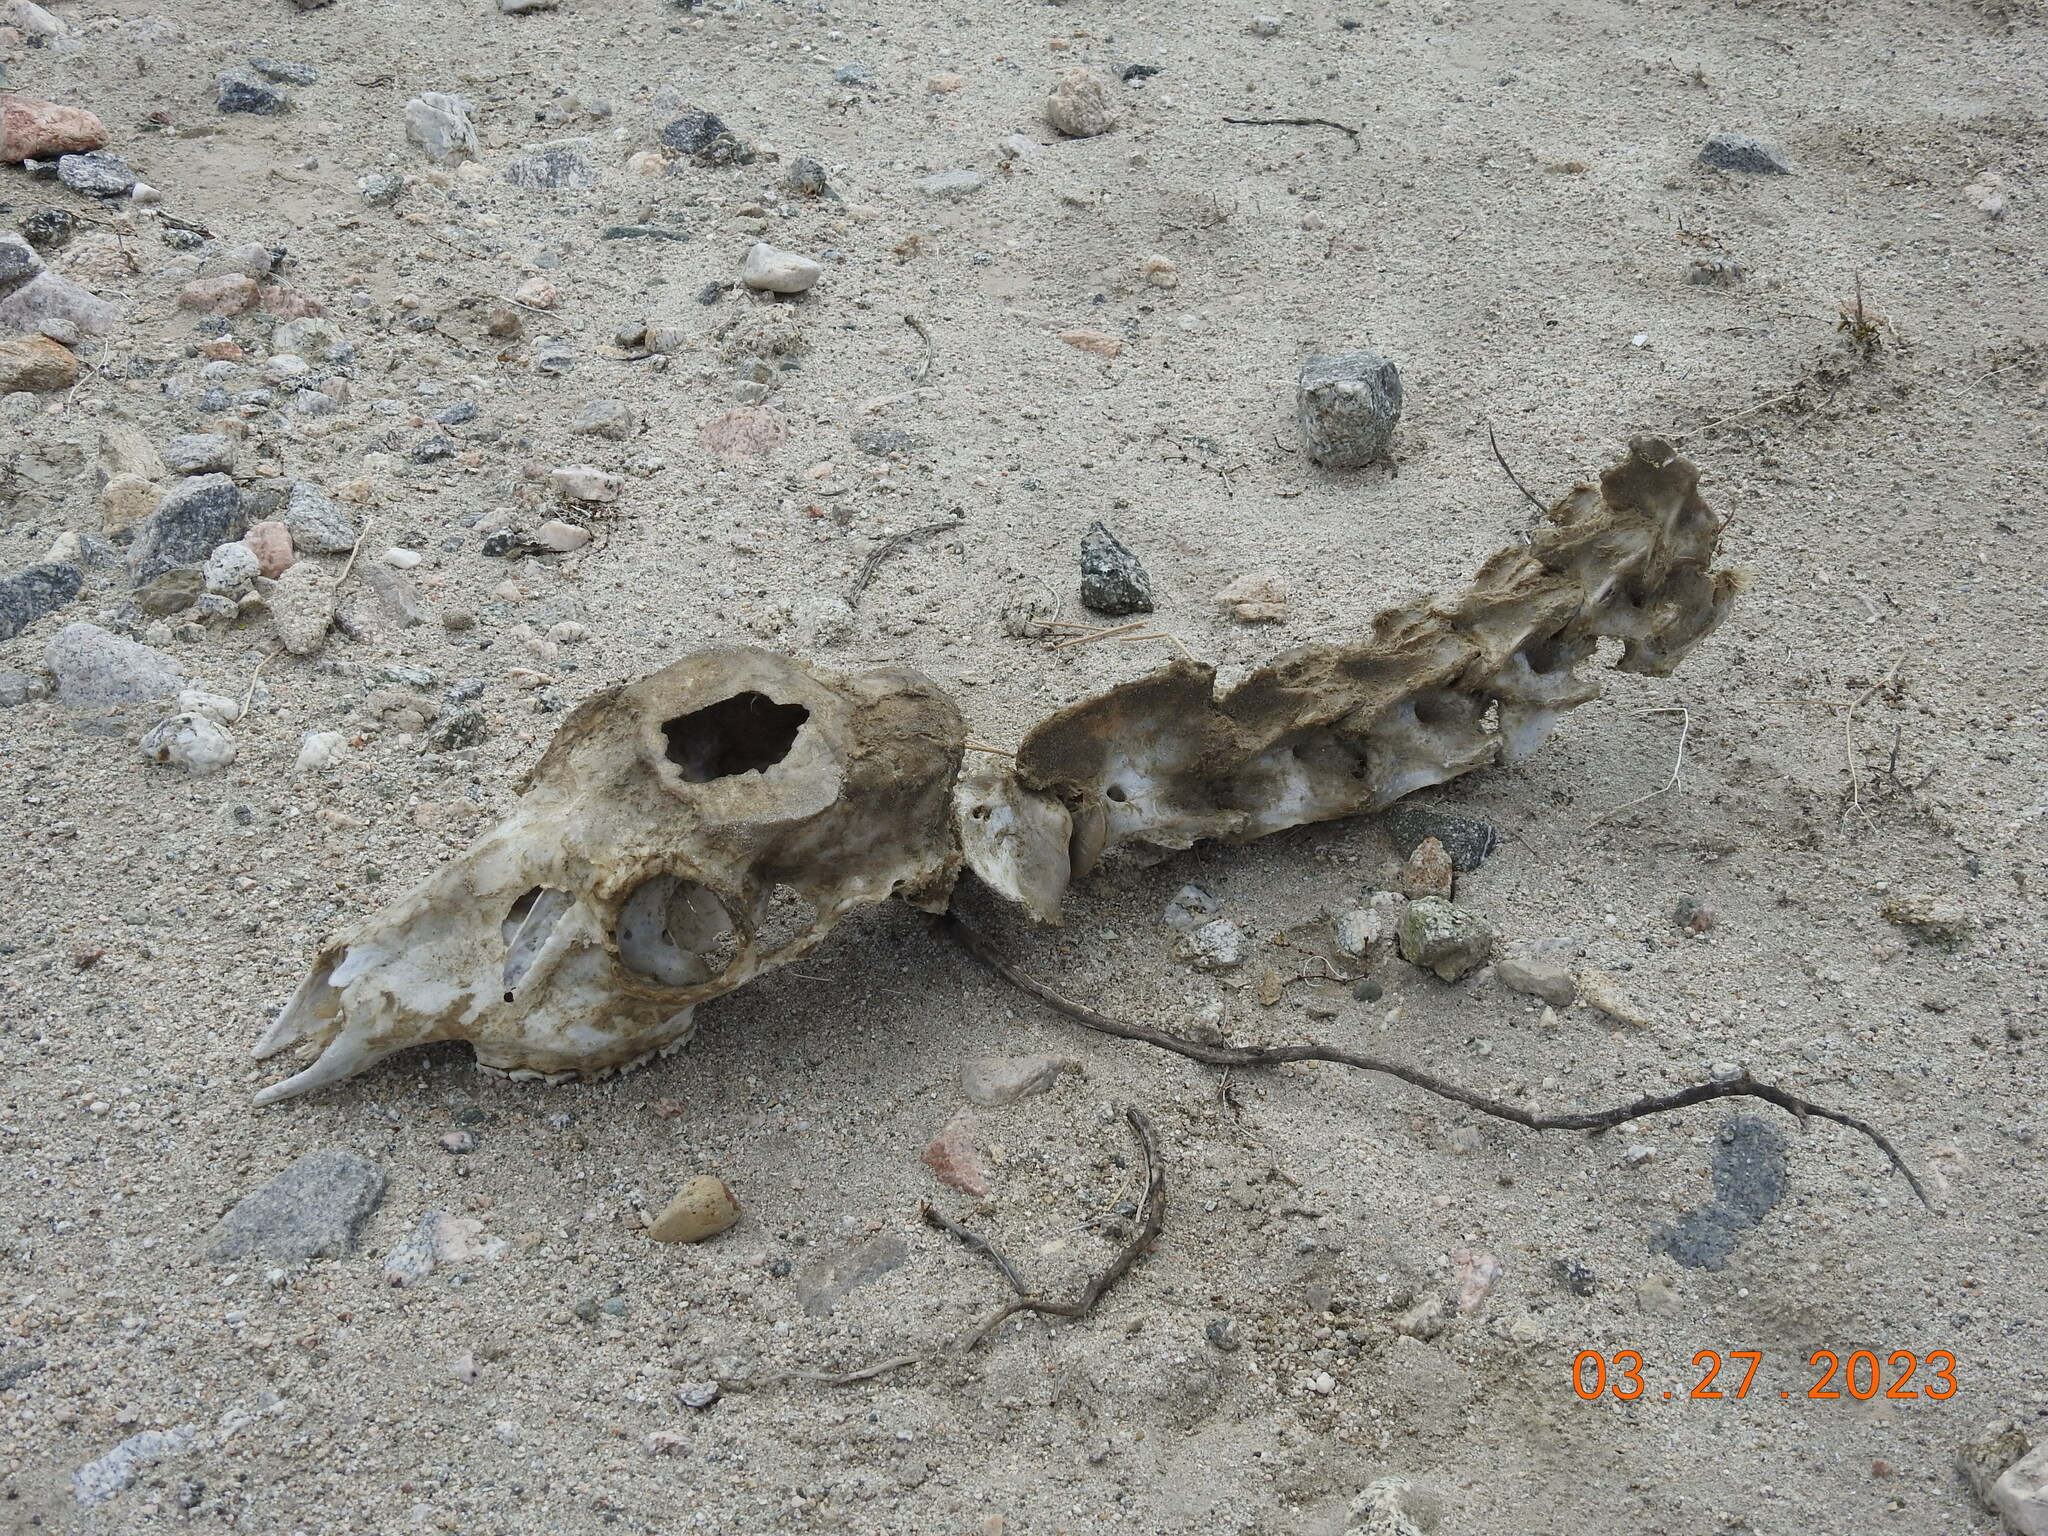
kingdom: Animalia
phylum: Chordata
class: Mammalia
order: Artiodactyla
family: Cervidae
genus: Odocoileus
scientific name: Odocoileus hemionus
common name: Mule deer
